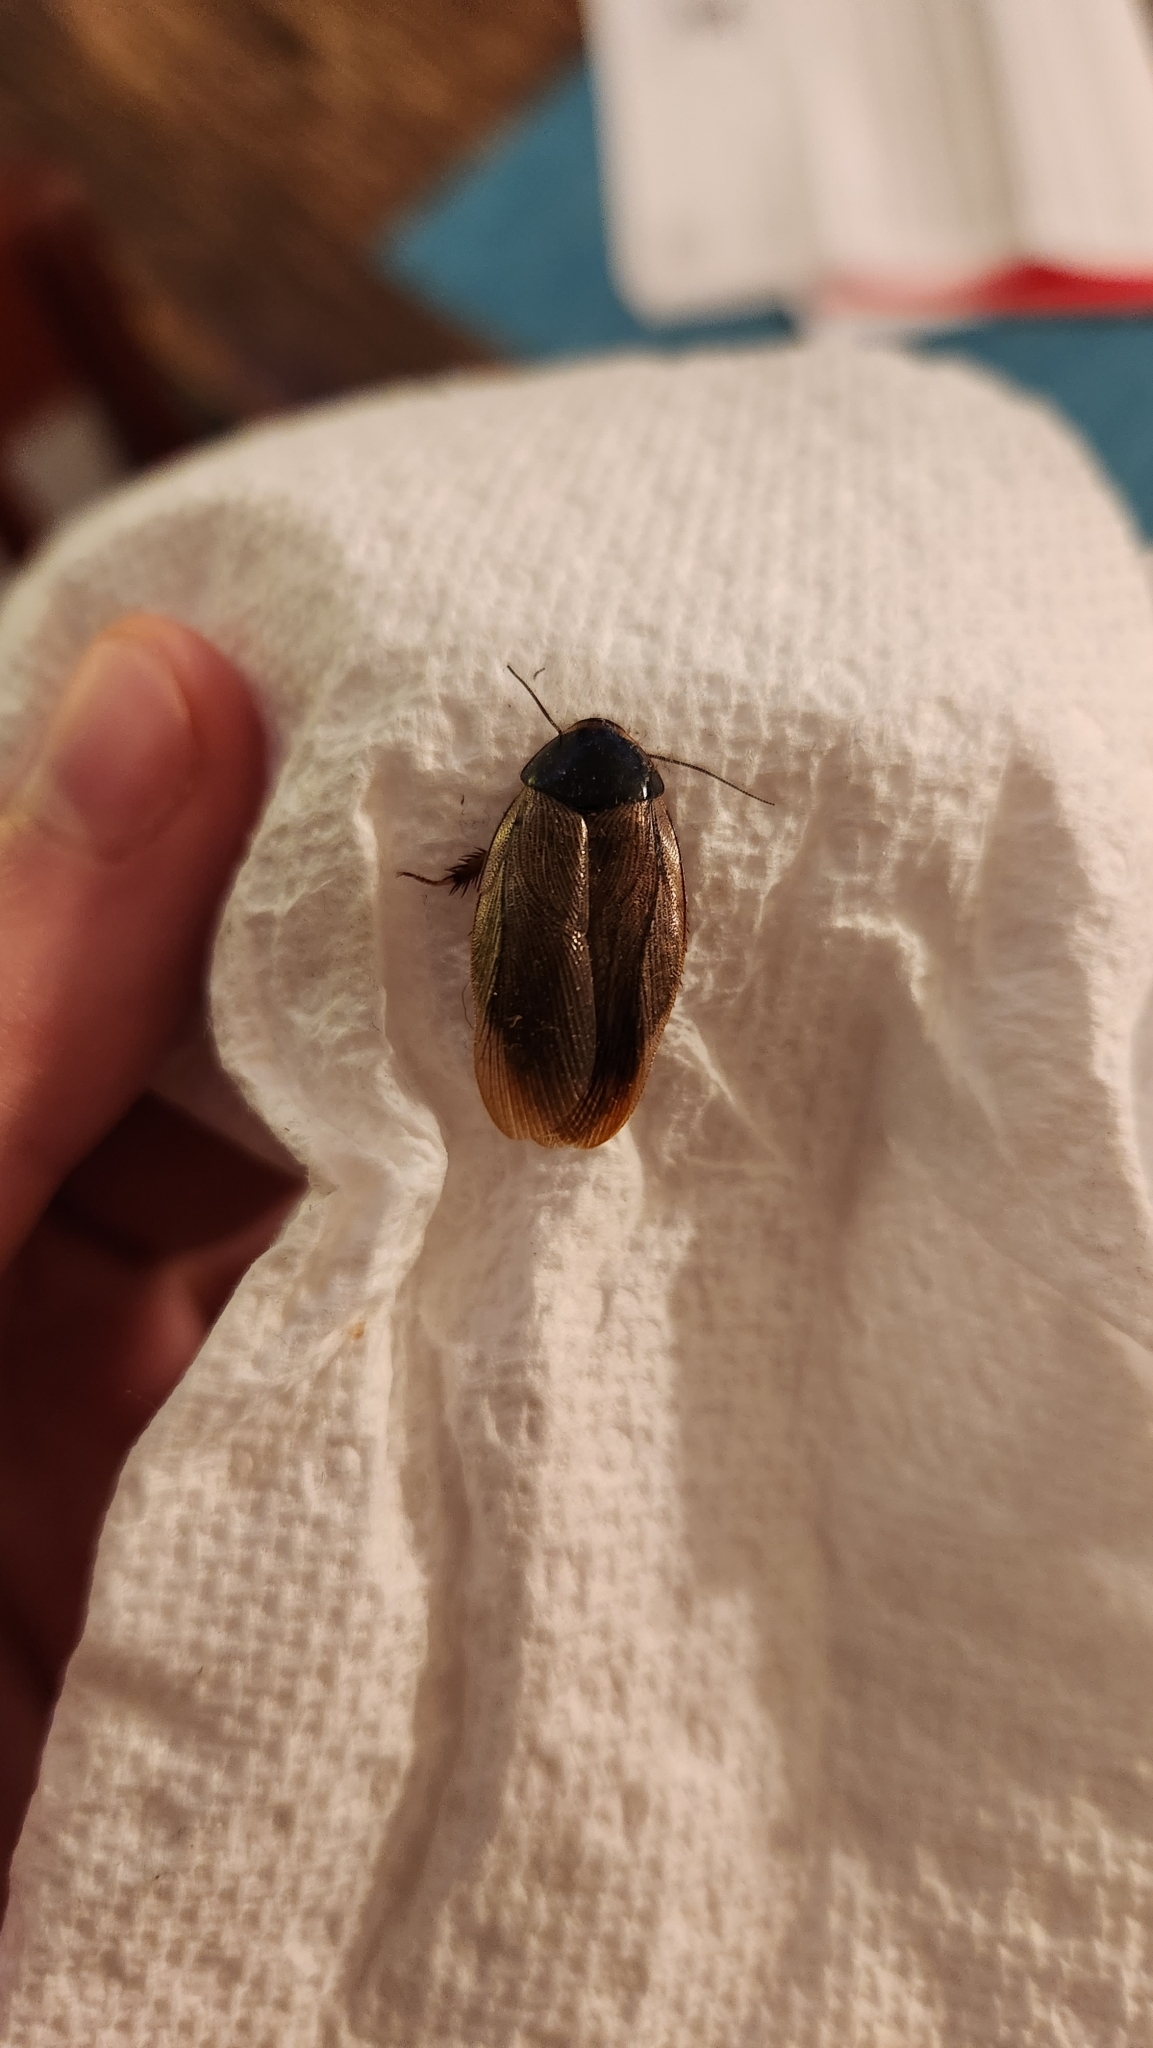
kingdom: Animalia
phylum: Arthropoda
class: Insecta
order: Blattodea
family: Blaberidae
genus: Pycnoscelus
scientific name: Pycnoscelus surinamensis
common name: Surinam cockroach
